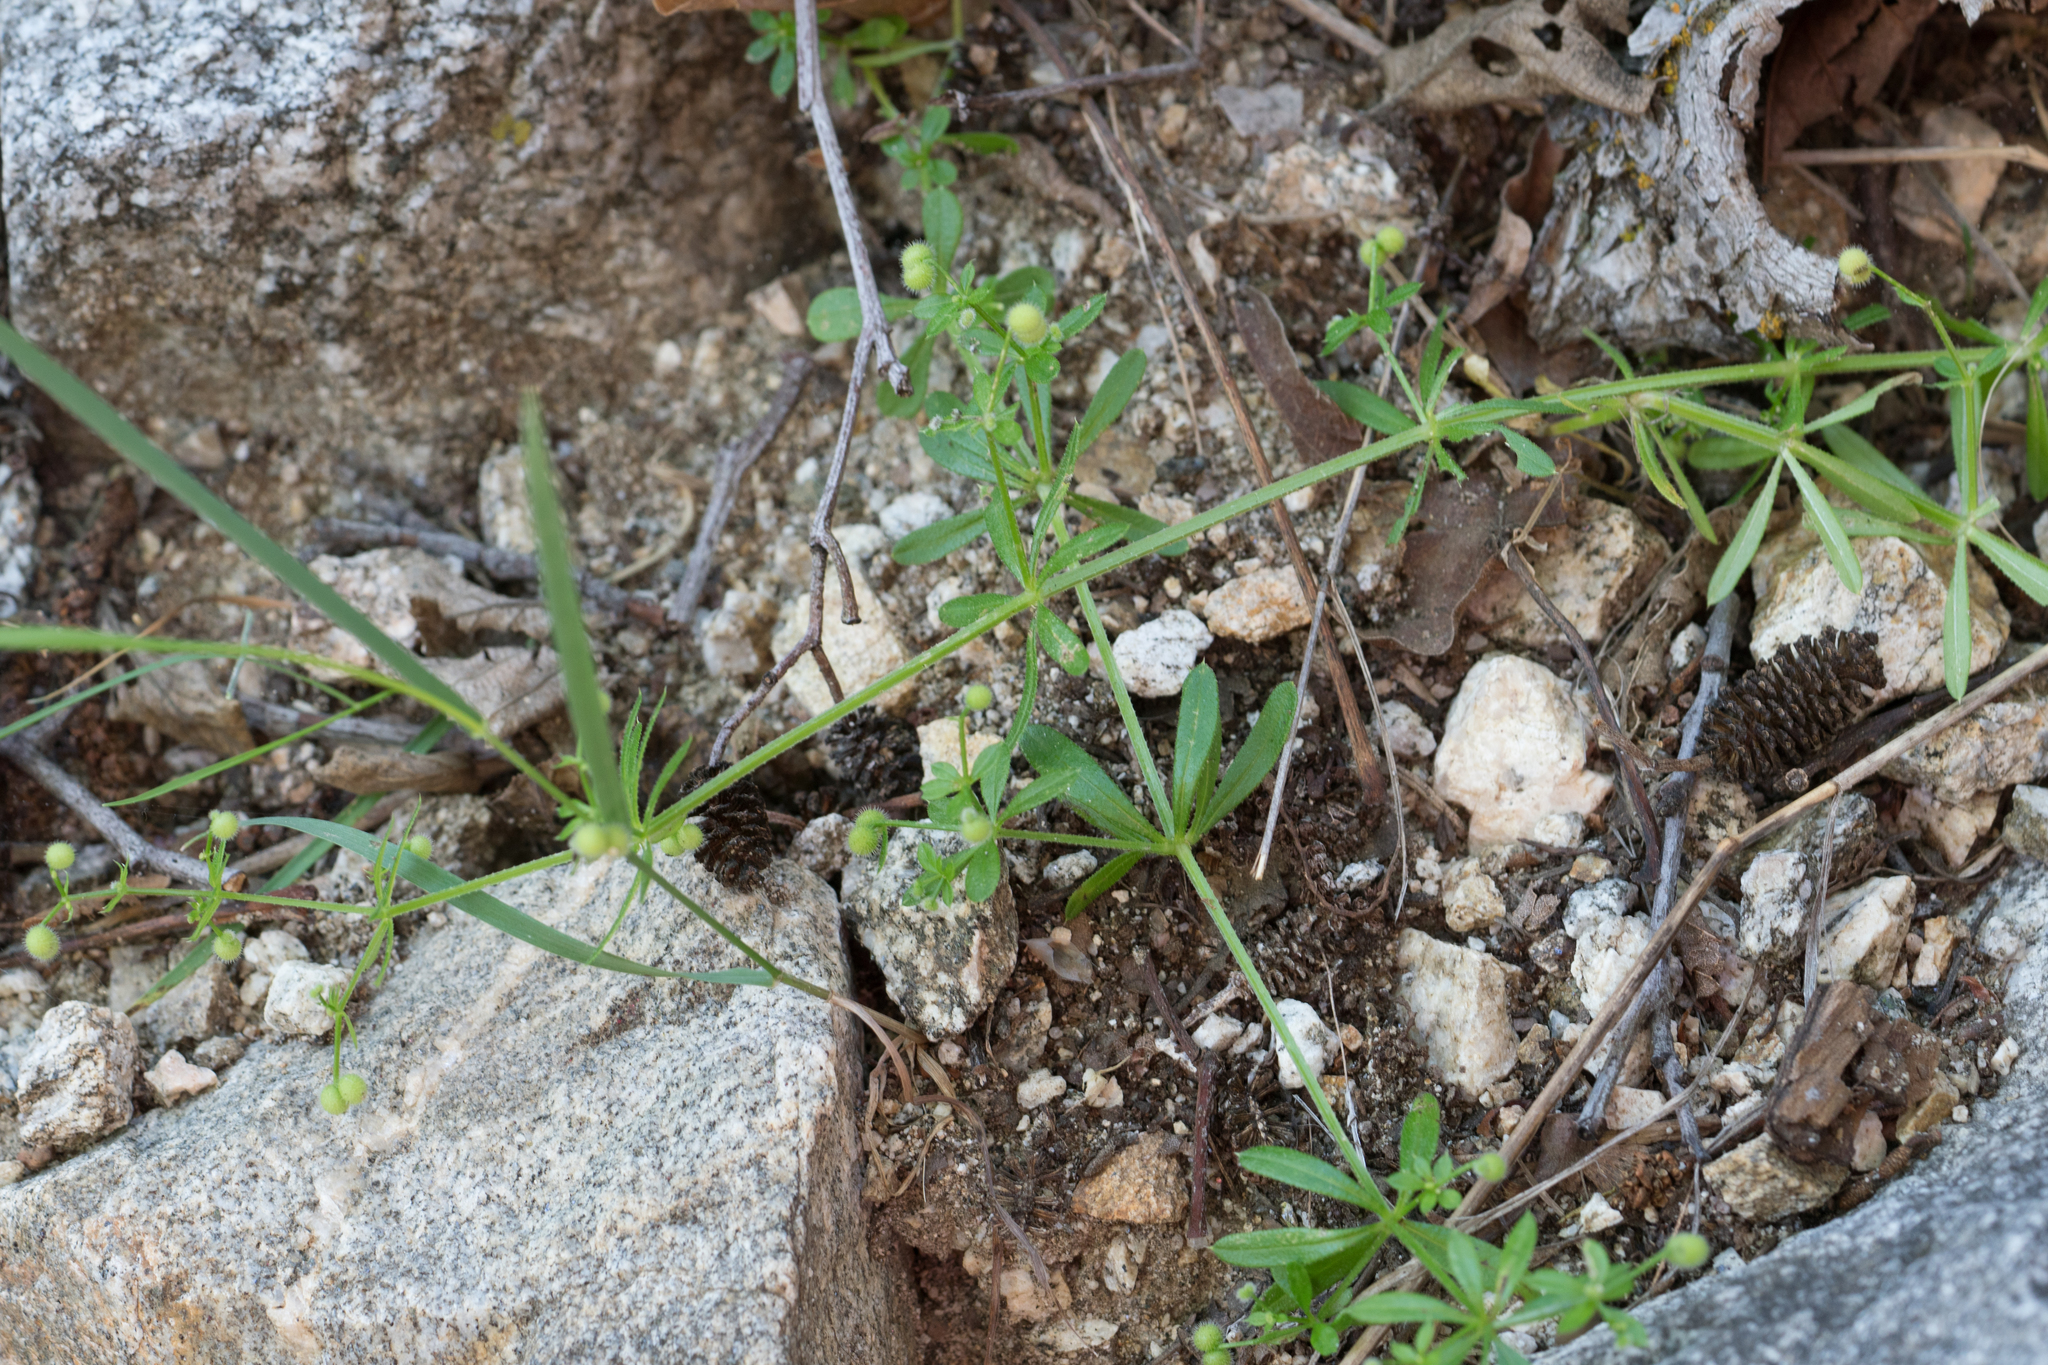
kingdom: Plantae
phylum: Tracheophyta
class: Magnoliopsida
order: Gentianales
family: Rubiaceae
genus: Galium
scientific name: Galium aparine
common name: Cleavers
